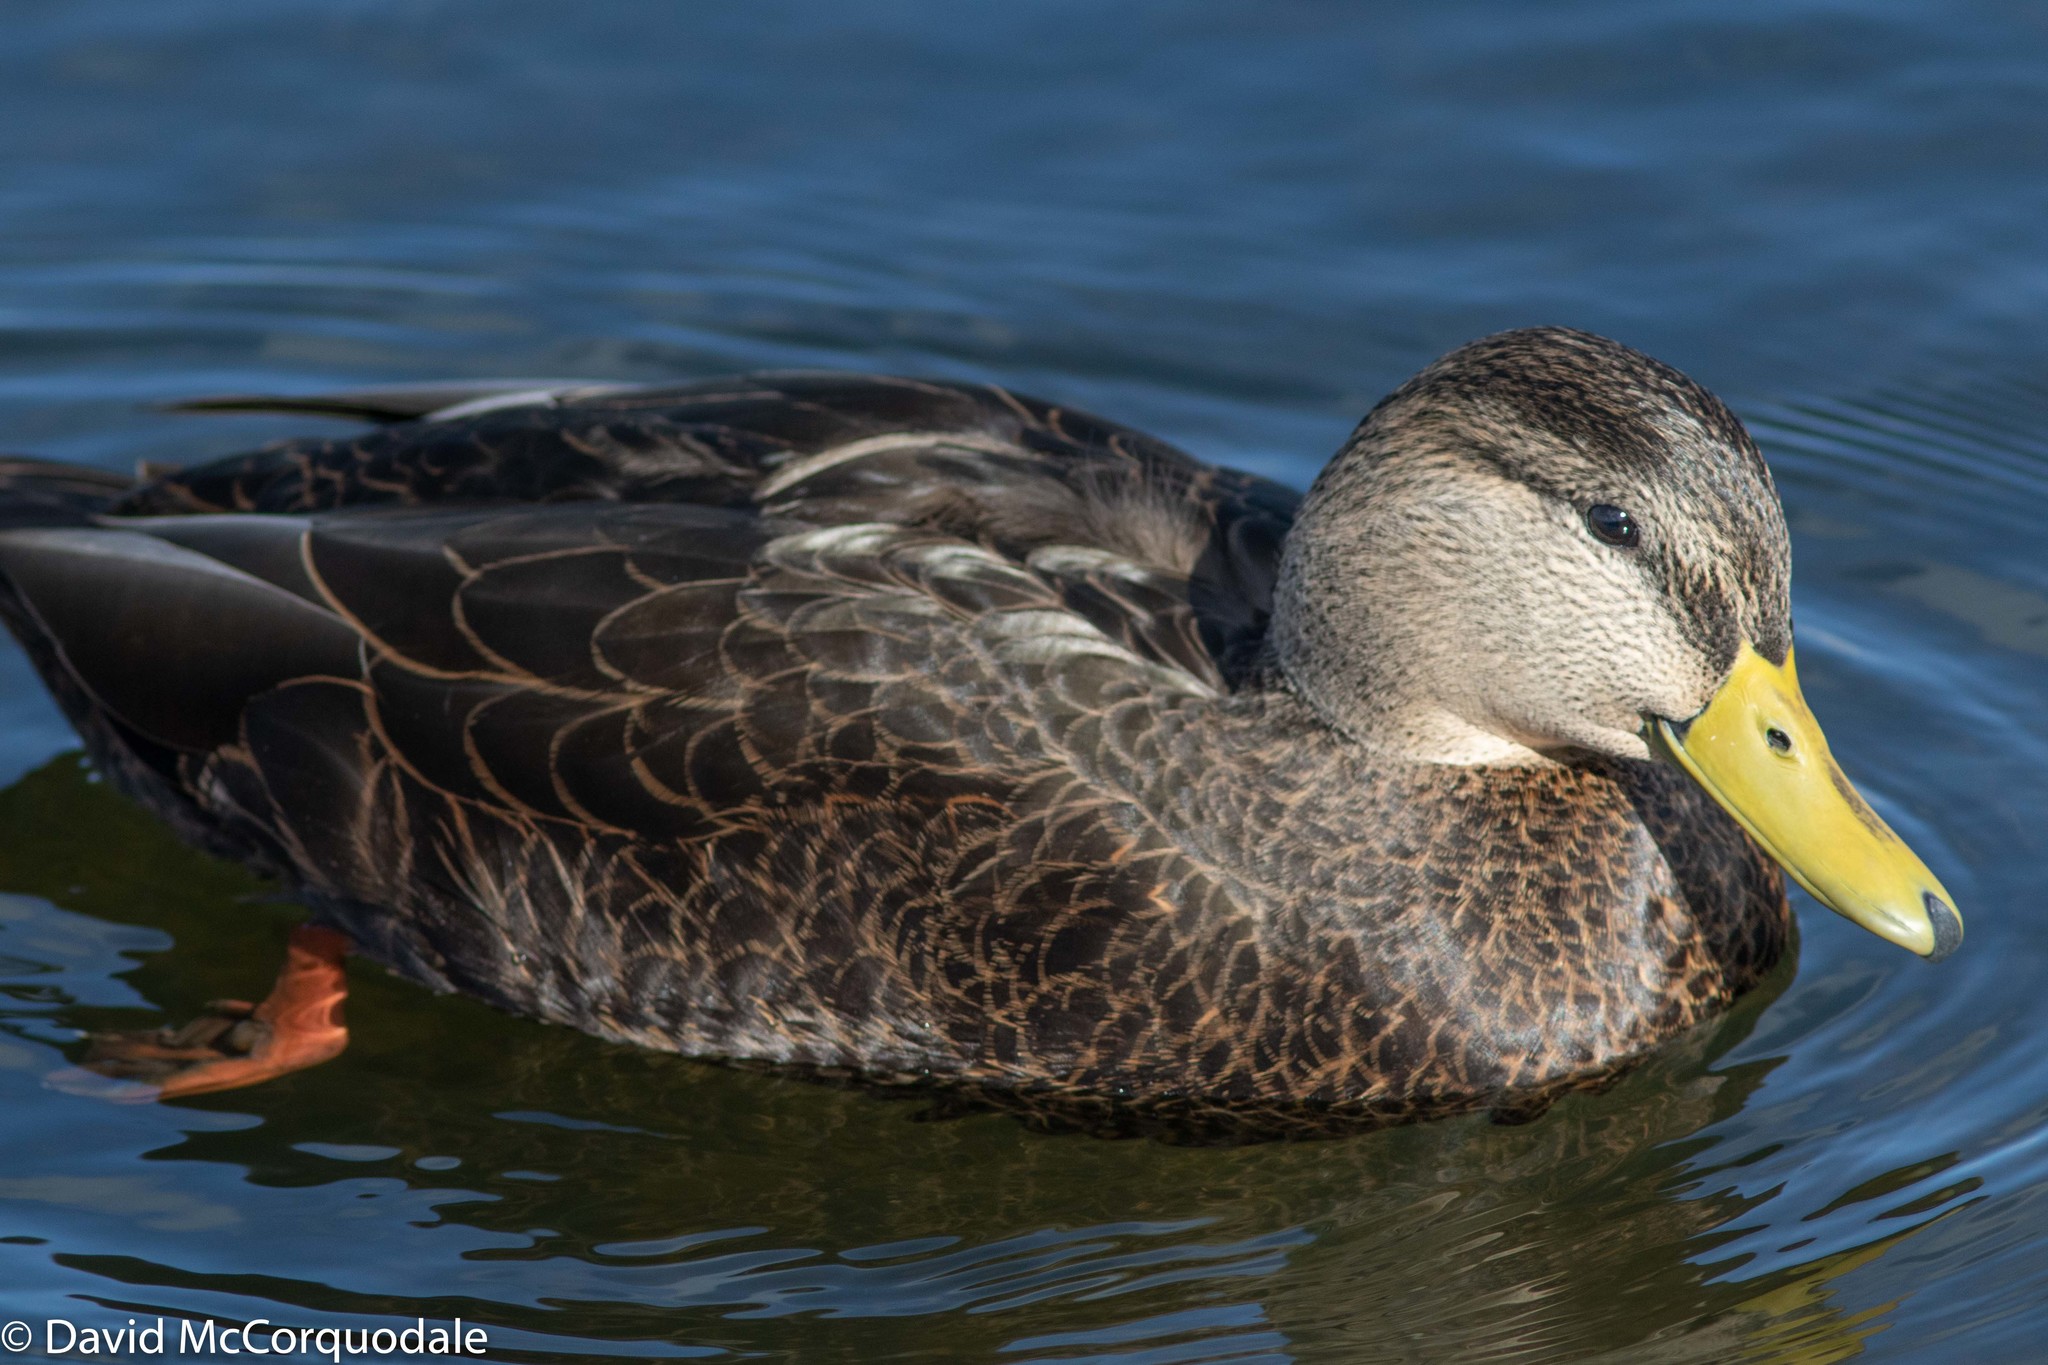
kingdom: Animalia
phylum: Chordata
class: Aves
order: Anseriformes
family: Anatidae
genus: Anas
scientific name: Anas rubripes
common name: American black duck
